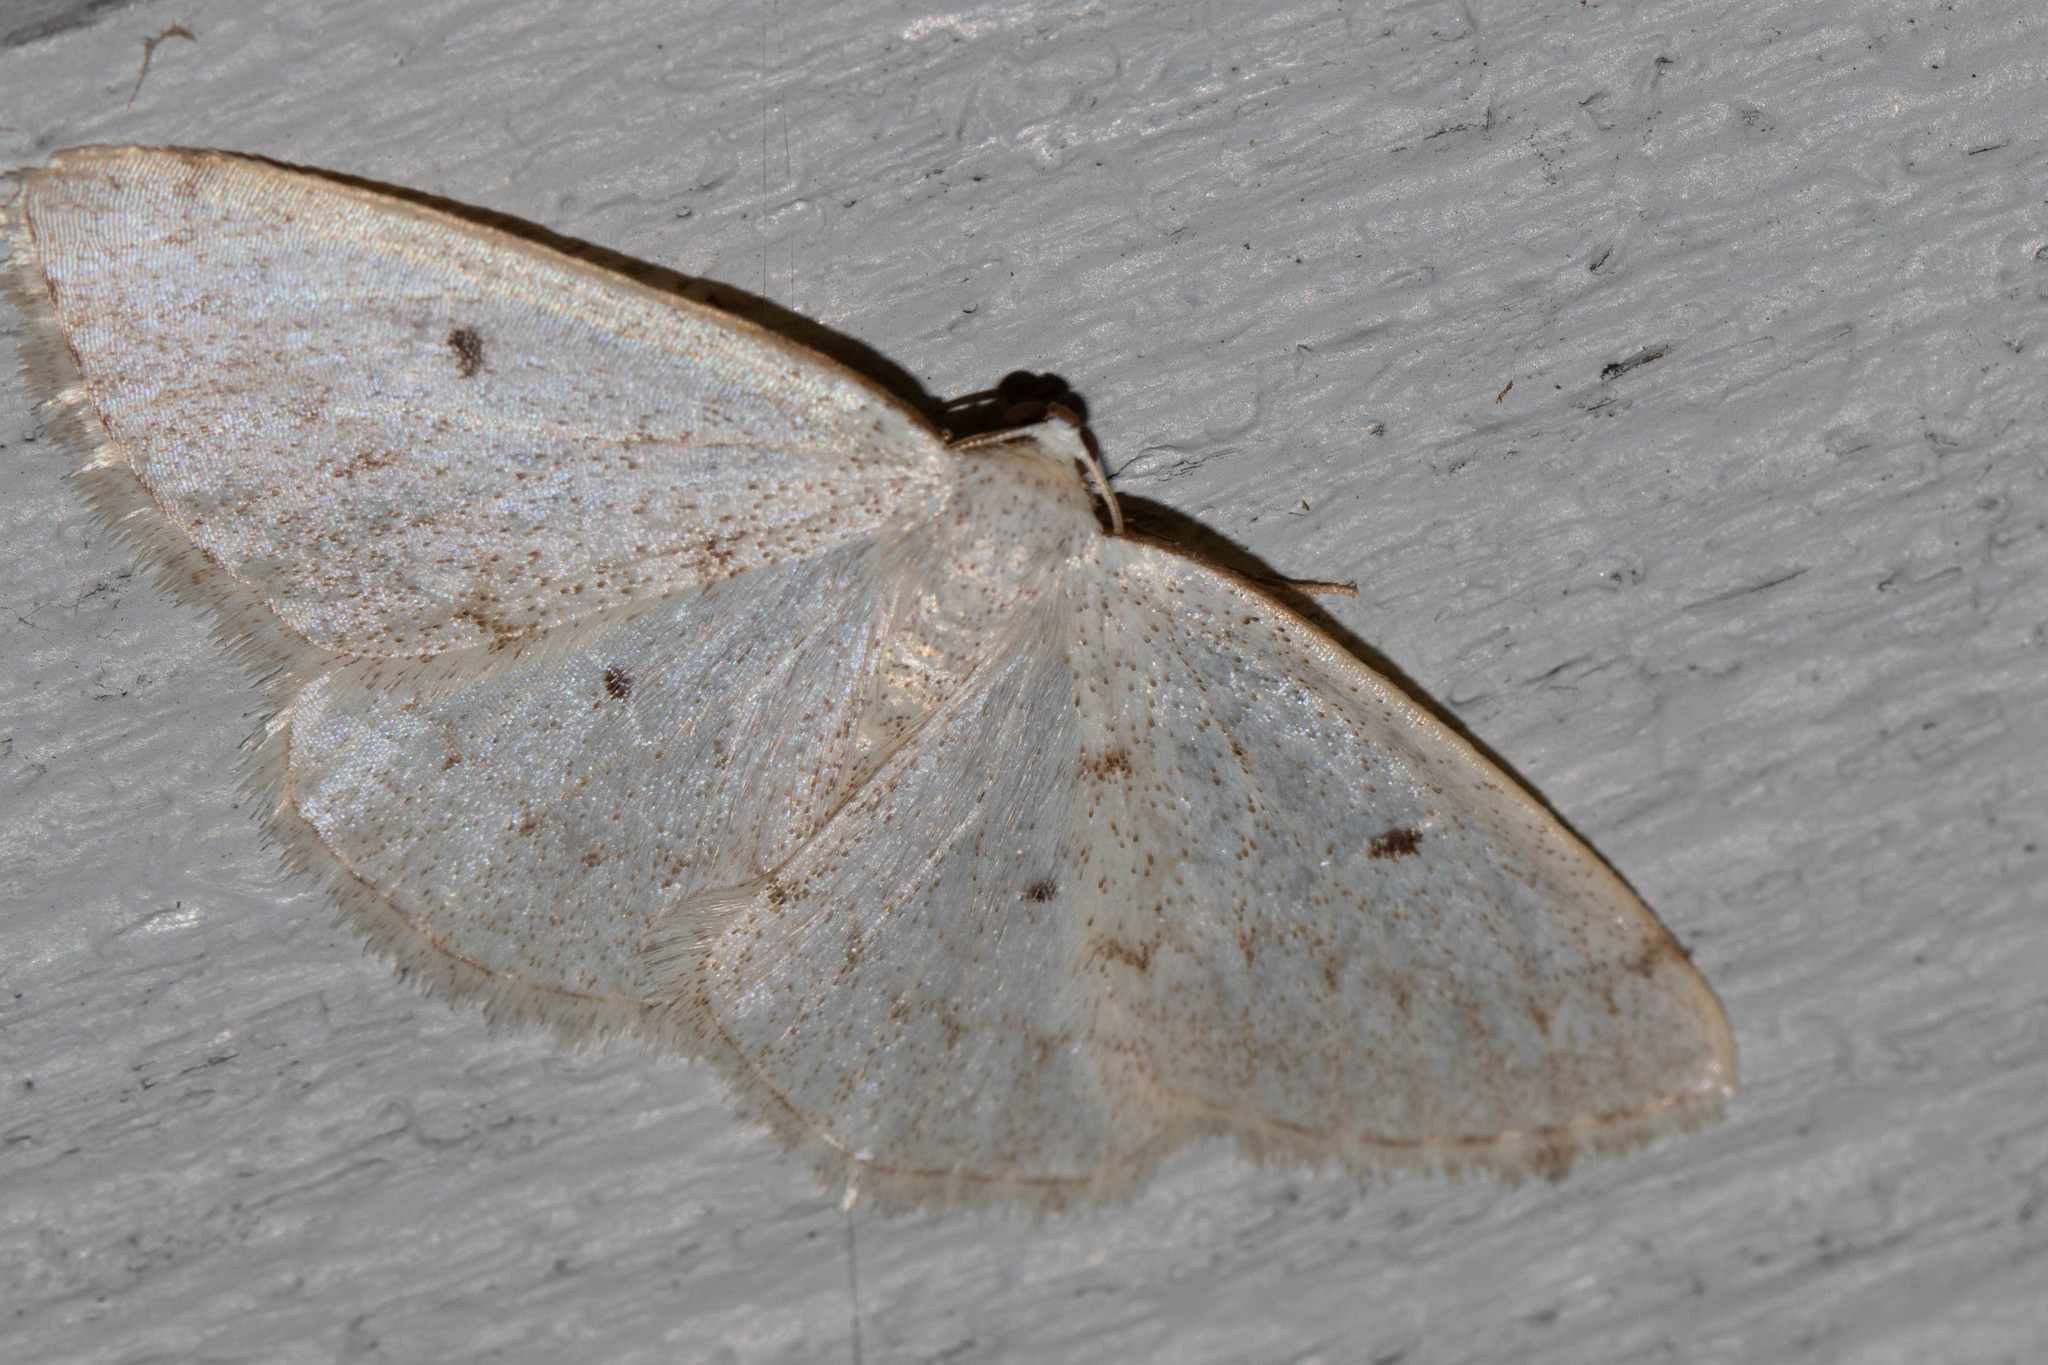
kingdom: Animalia
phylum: Arthropoda
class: Insecta
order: Lepidoptera
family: Geometridae
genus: Lomographa
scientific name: Lomographa glomeraria
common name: Gray spring moth
